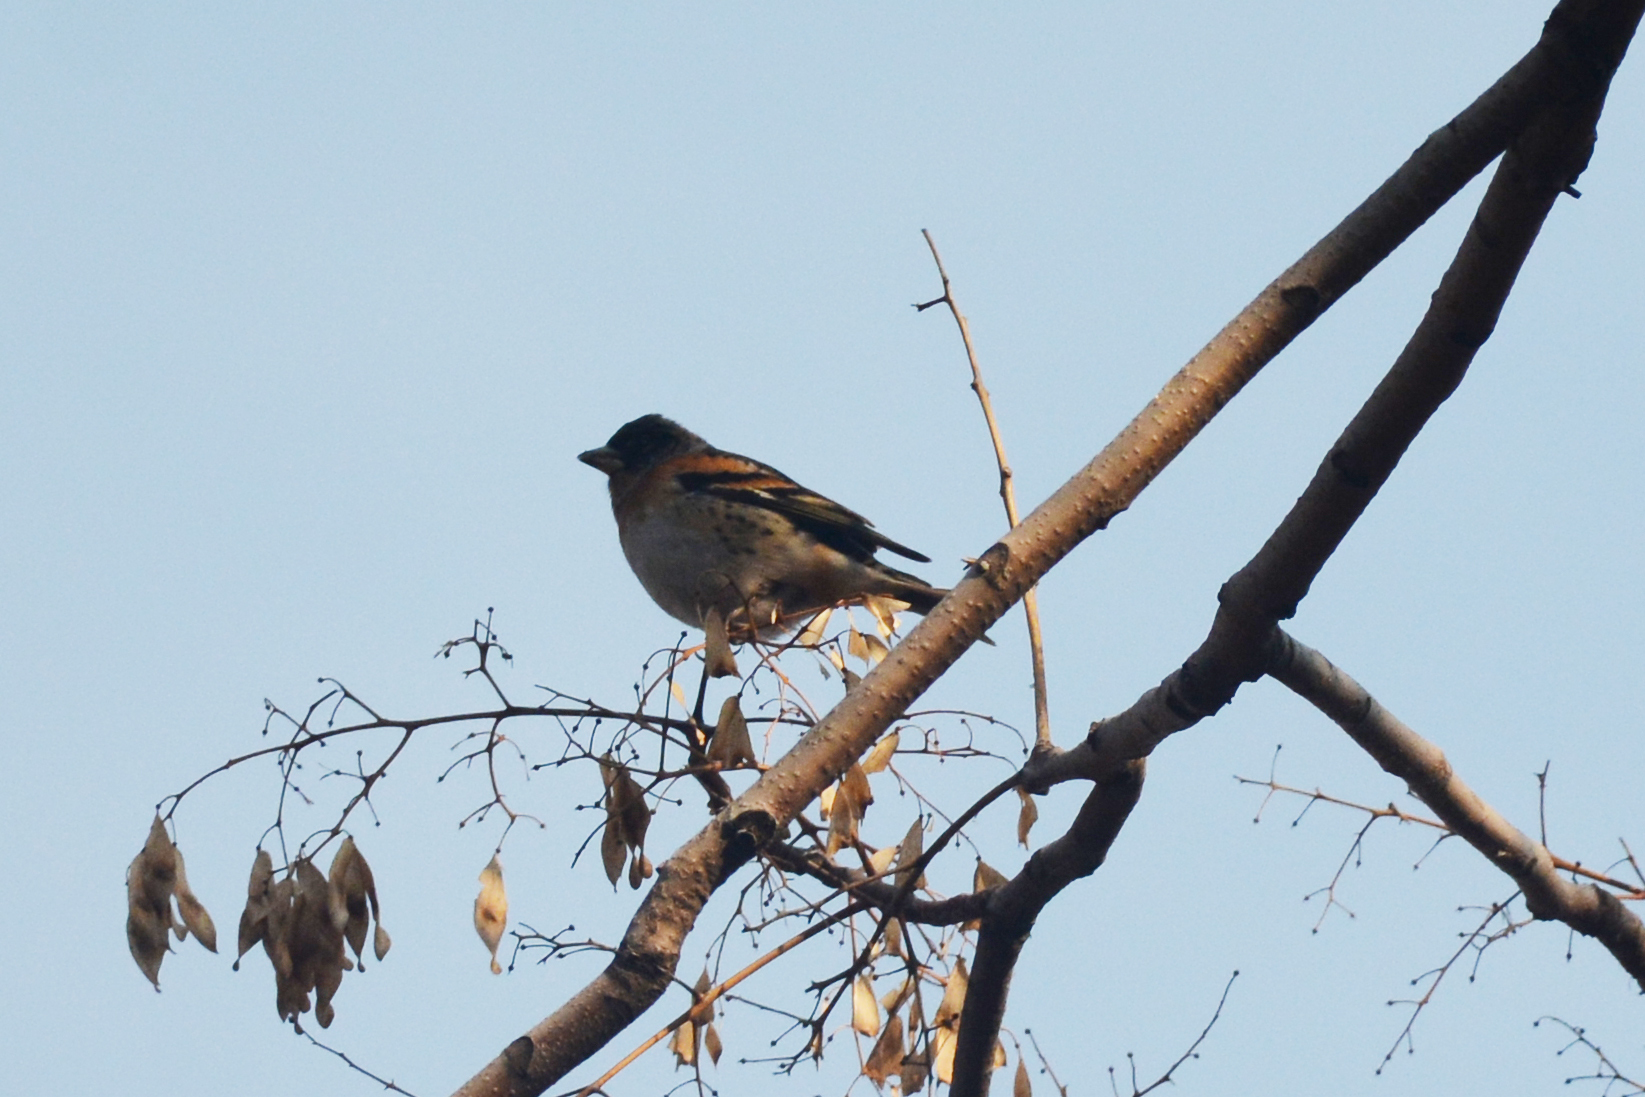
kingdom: Animalia
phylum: Chordata
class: Aves
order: Passeriformes
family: Fringillidae
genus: Fringilla
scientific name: Fringilla montifringilla
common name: Brambling
